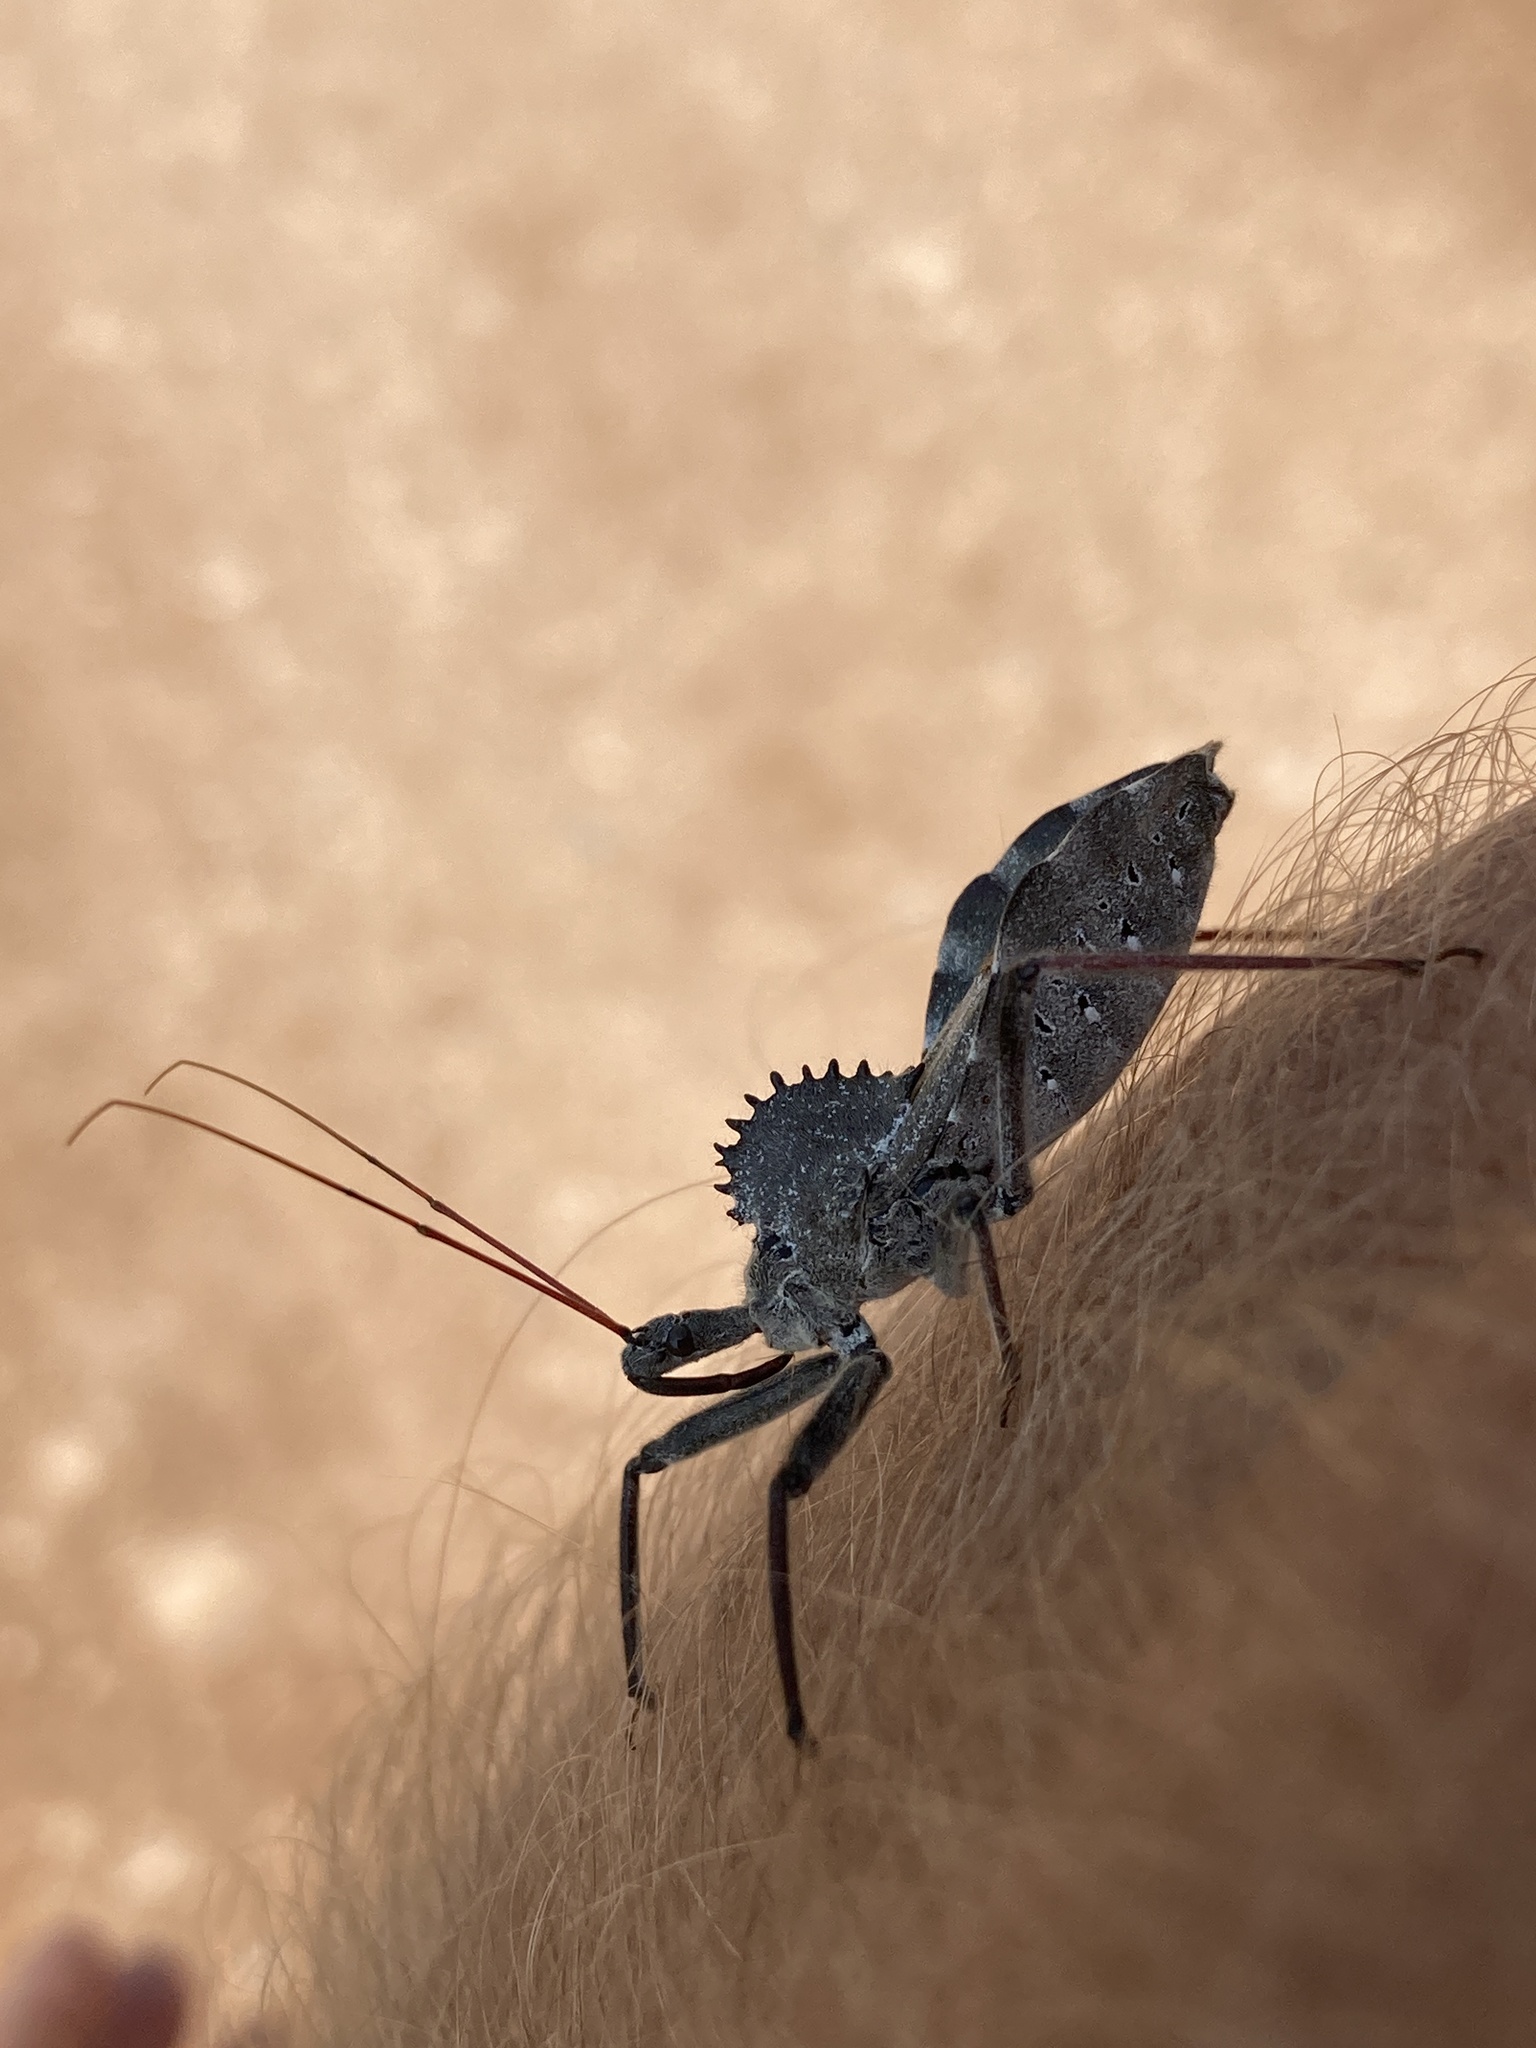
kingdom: Animalia
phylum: Arthropoda
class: Insecta
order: Hemiptera
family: Reduviidae
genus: Arilus
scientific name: Arilus cristatus
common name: North american wheel bug
